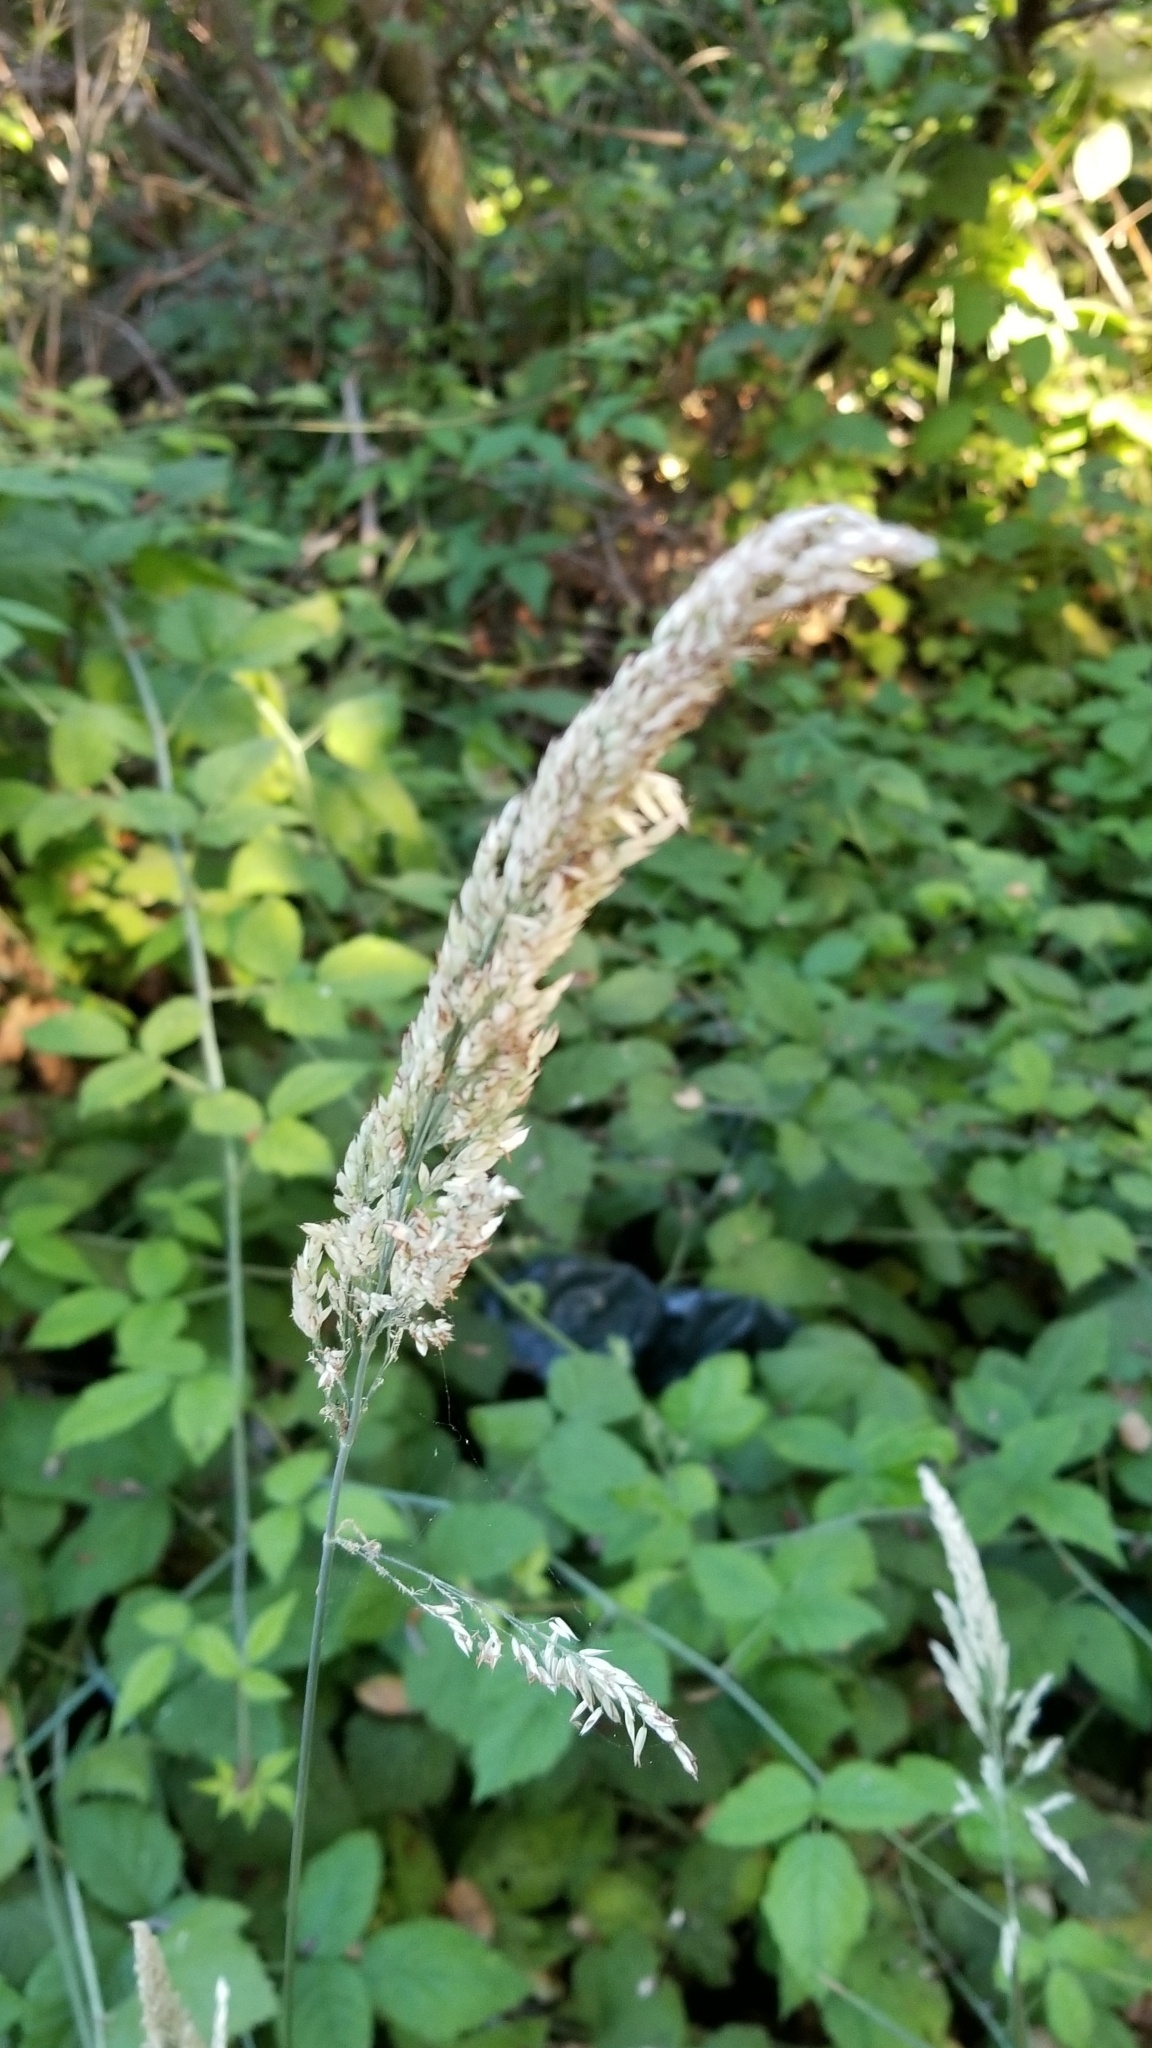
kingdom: Plantae
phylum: Tracheophyta
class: Liliopsida
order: Poales
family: Poaceae
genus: Holcus
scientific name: Holcus lanatus
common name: Yorkshire-fog
